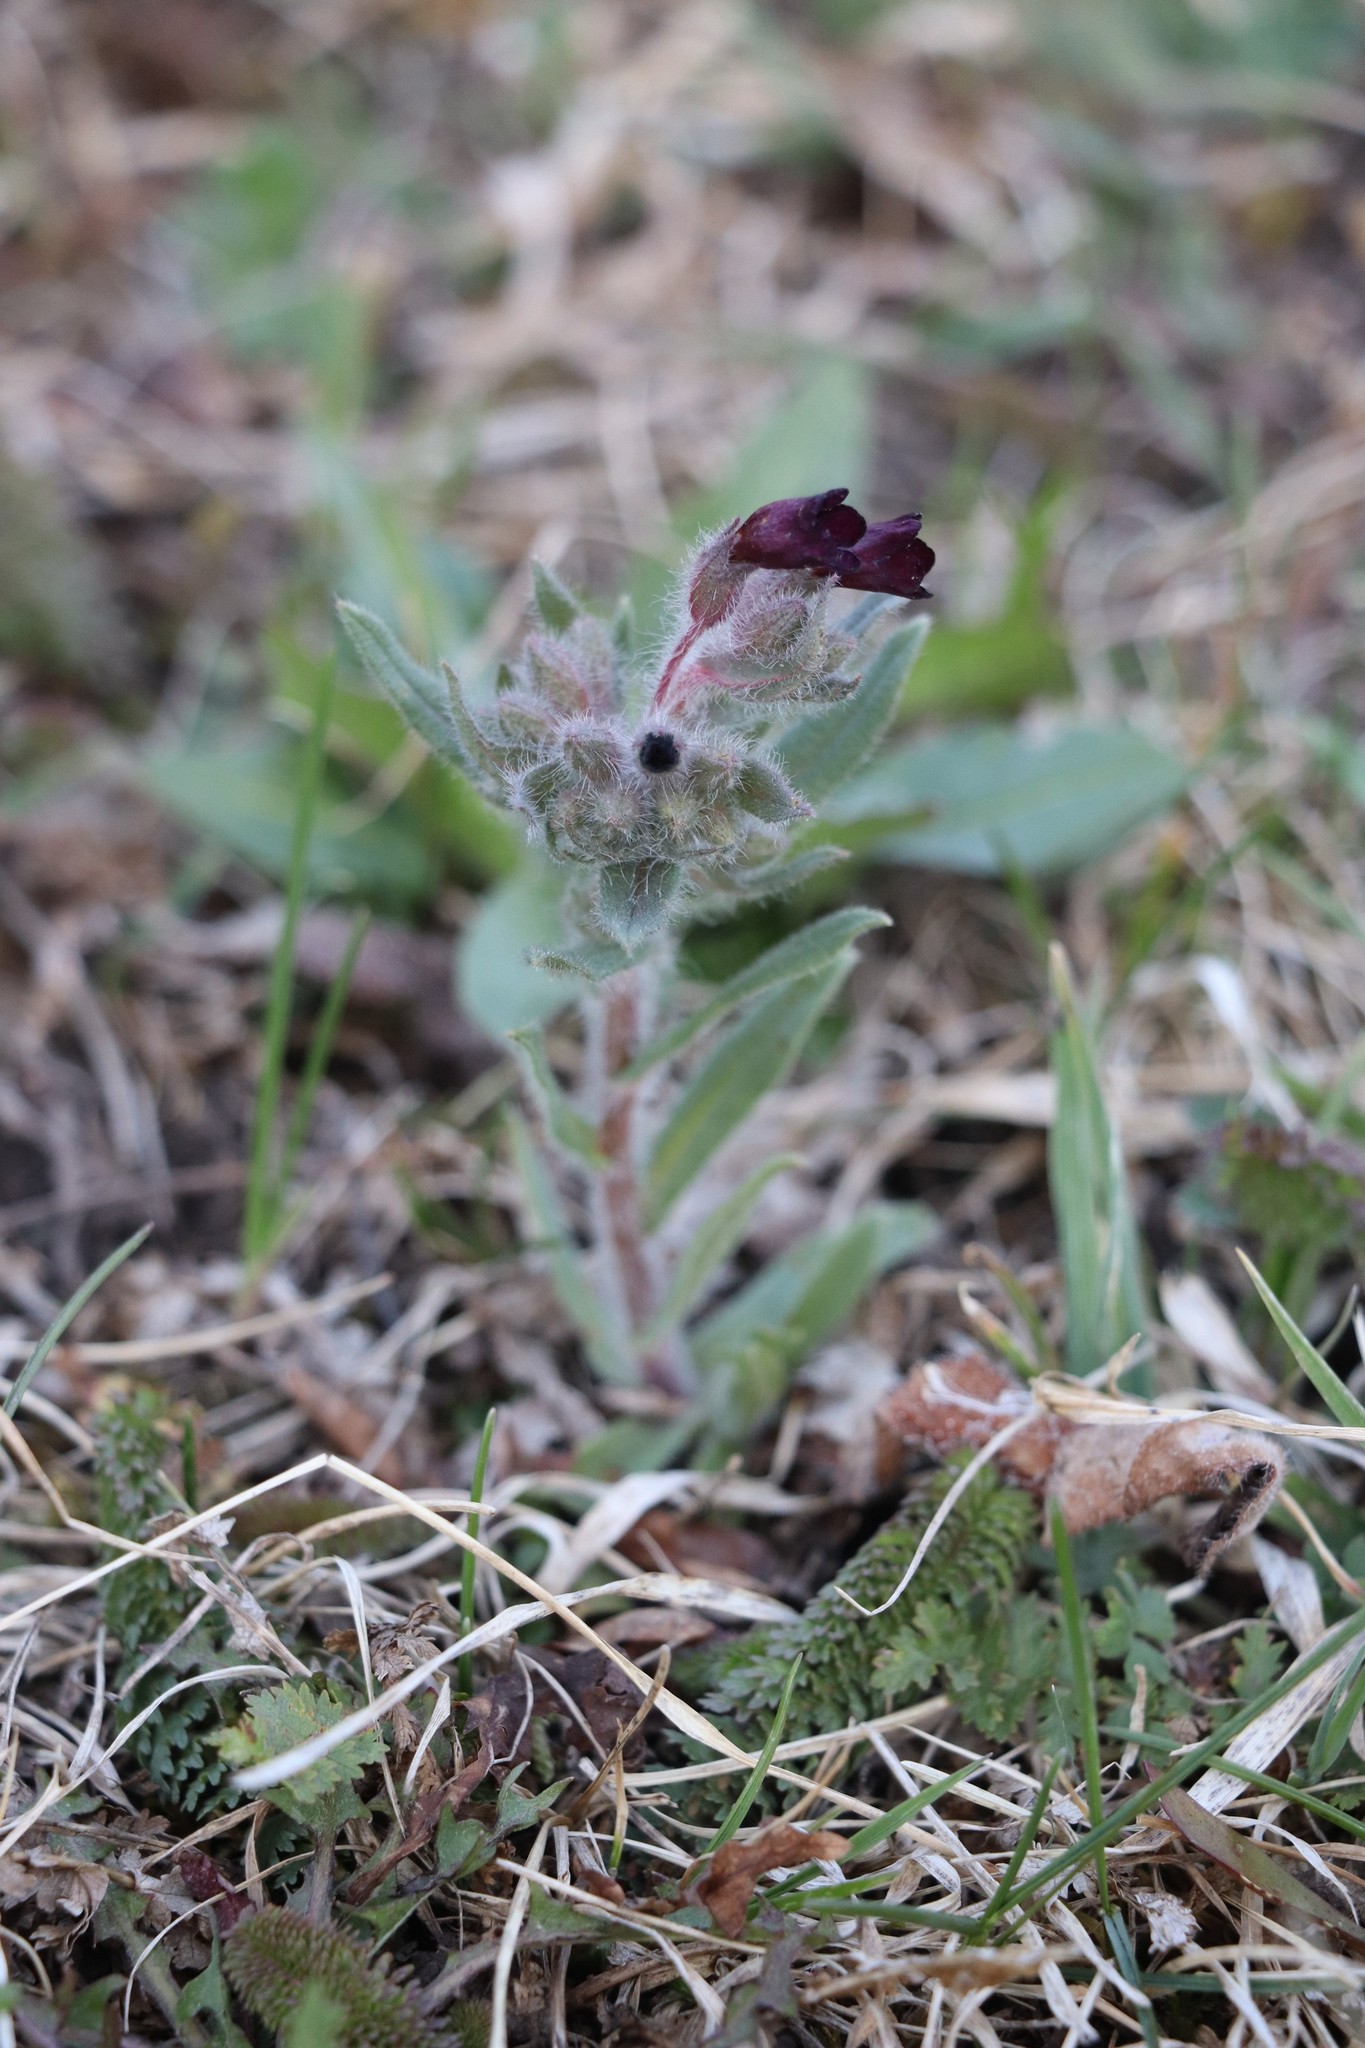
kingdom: Plantae
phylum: Tracheophyta
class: Magnoliopsida
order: Boraginales
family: Boraginaceae
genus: Nonea
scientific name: Nonea pulla
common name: Brown nonea
